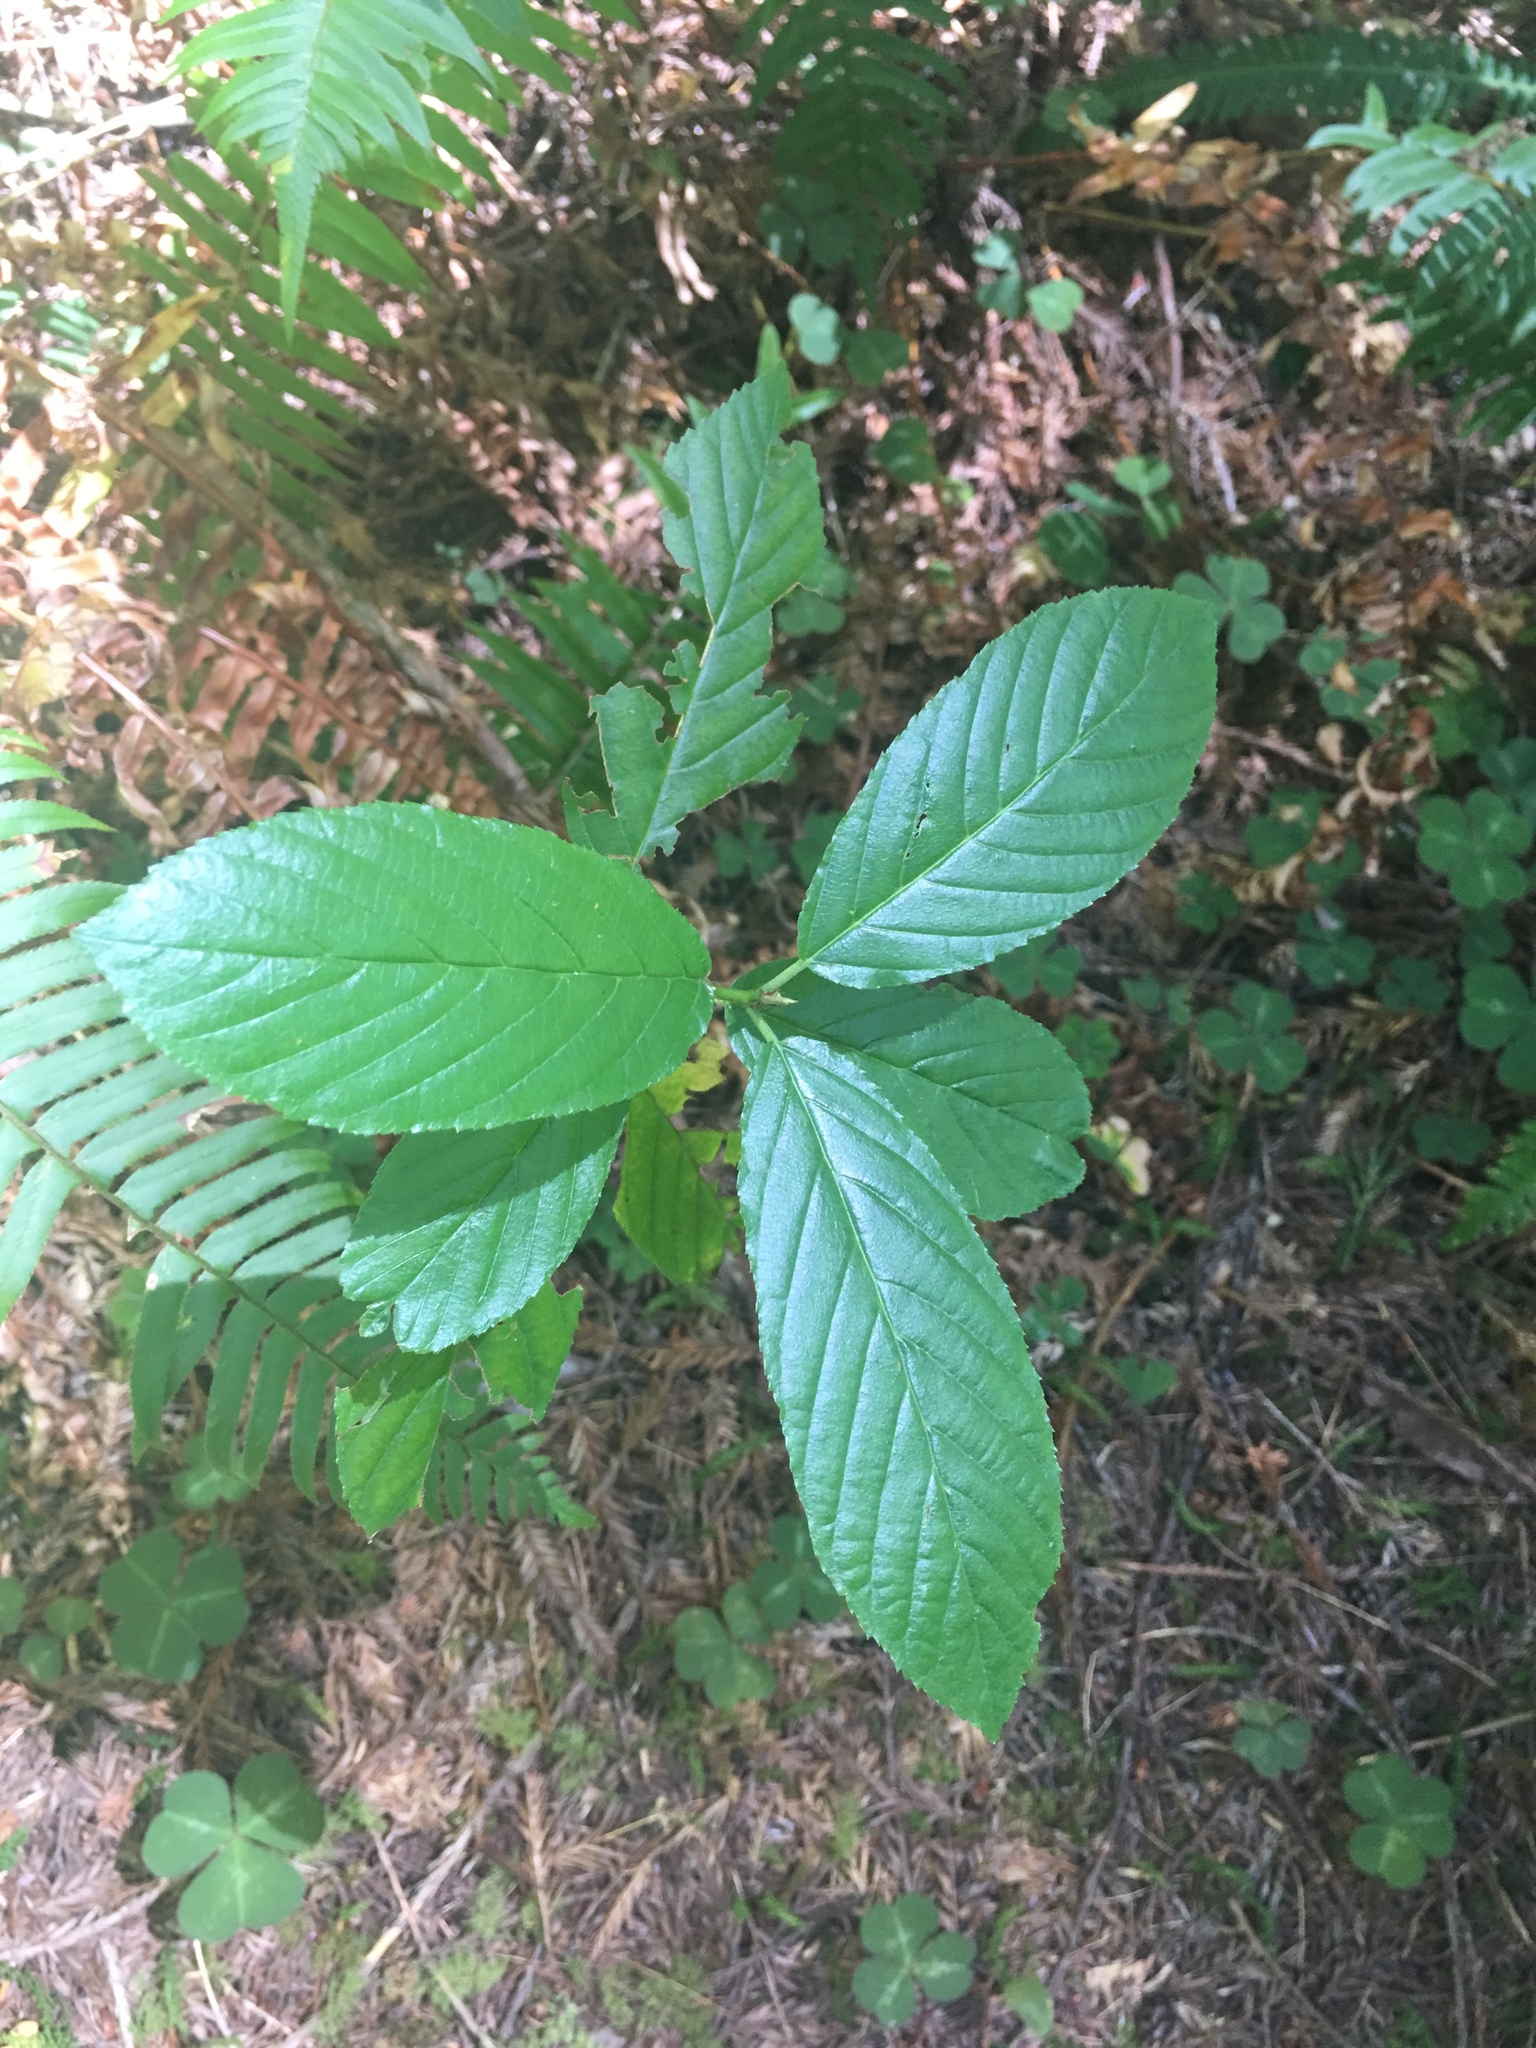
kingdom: Plantae
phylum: Tracheophyta
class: Magnoliopsida
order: Rosales
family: Rhamnaceae
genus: Frangula
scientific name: Frangula purshiana
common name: Cascara buckthorn
